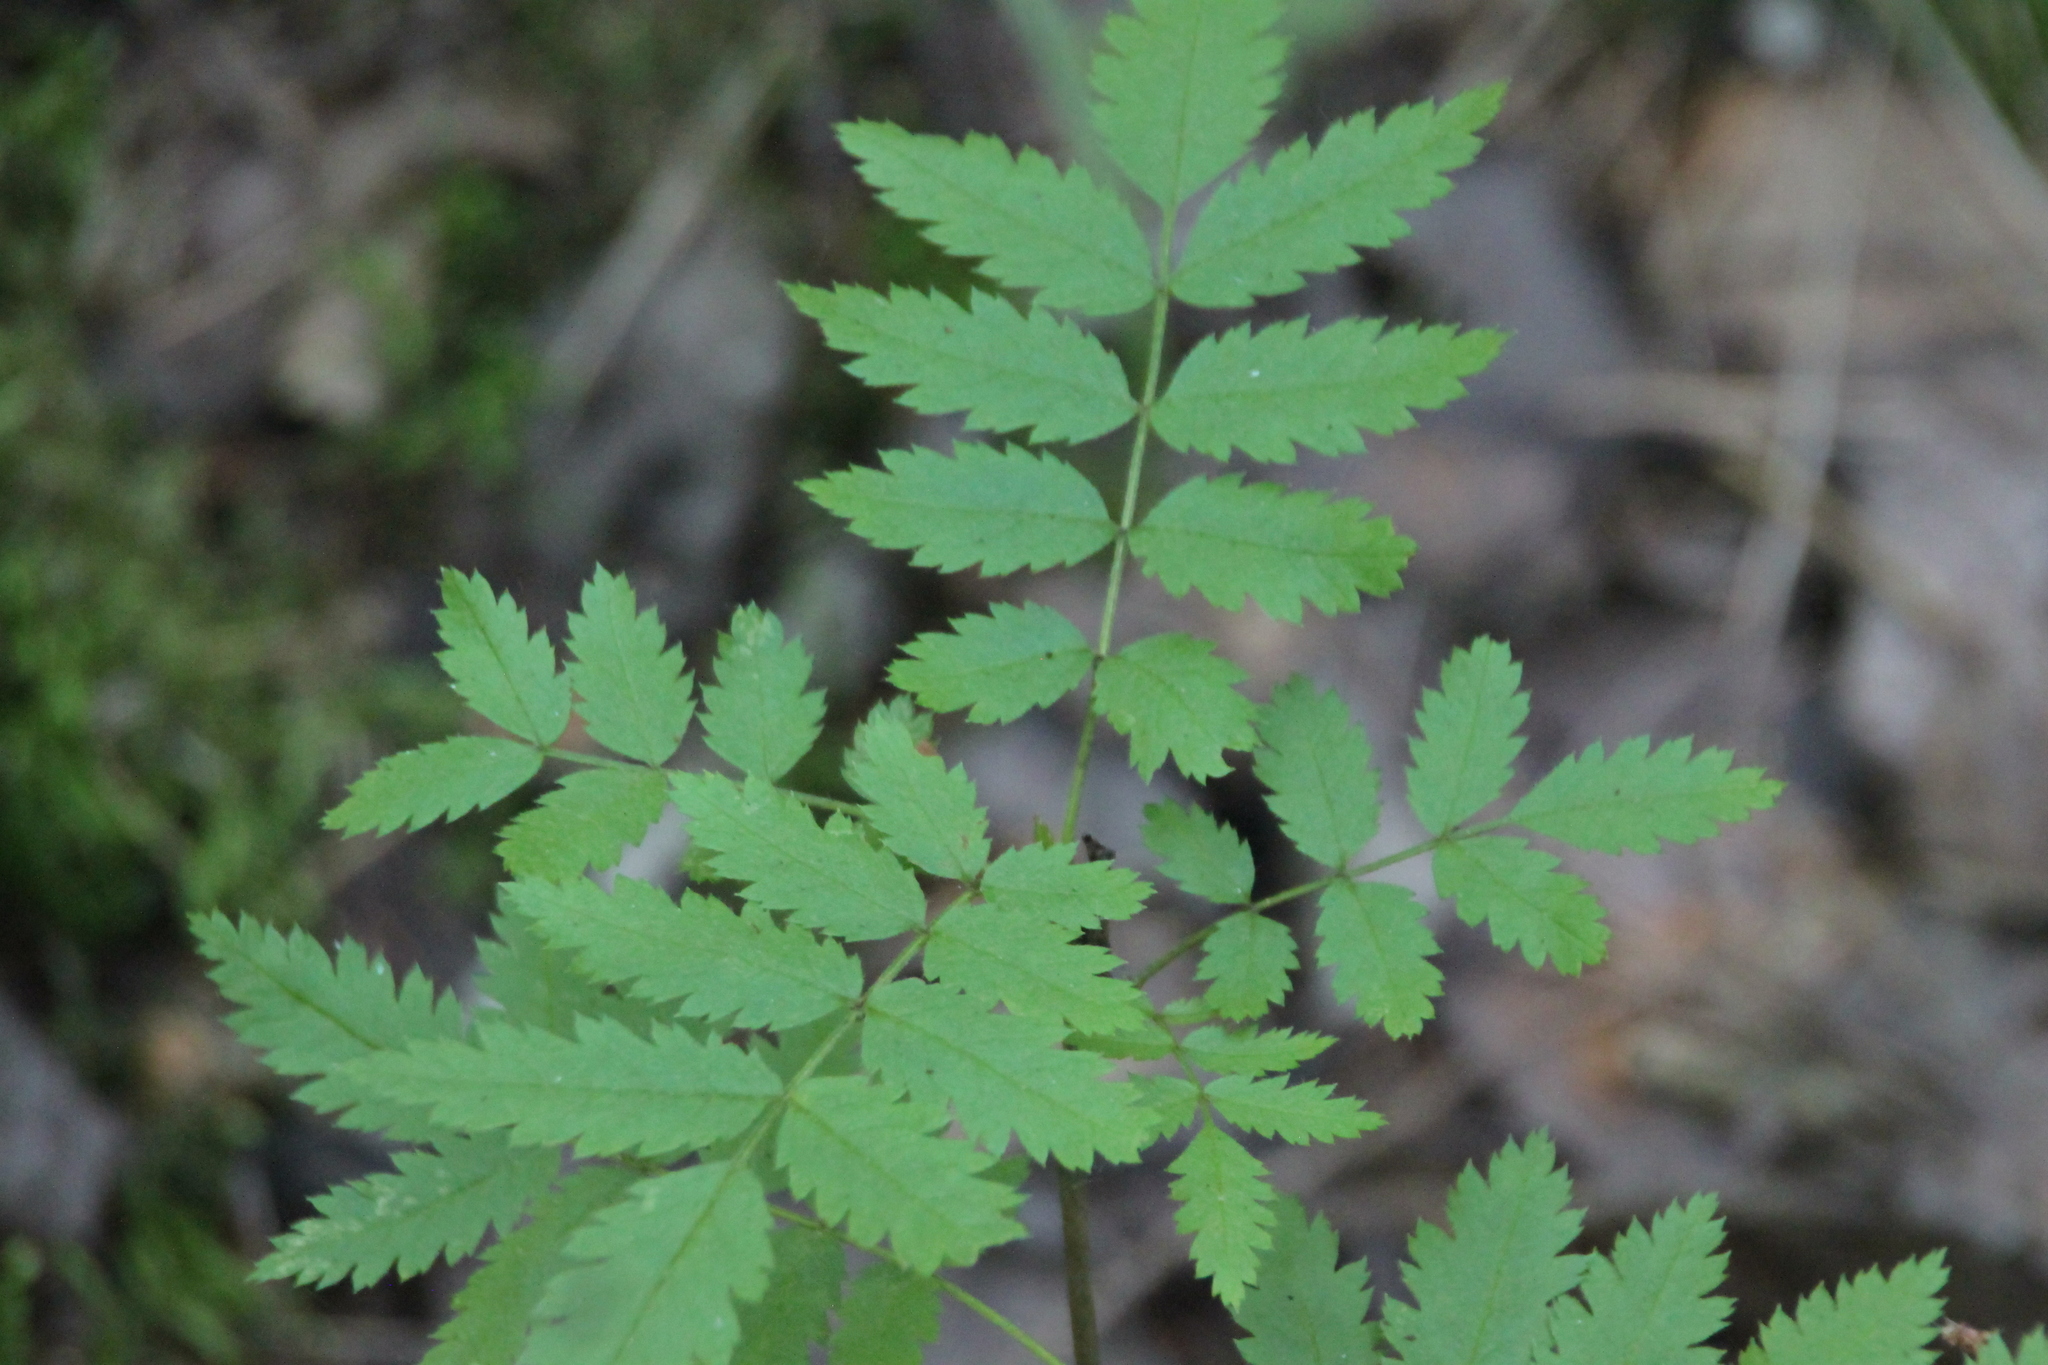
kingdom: Plantae
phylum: Tracheophyta
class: Magnoliopsida
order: Rosales
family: Rosaceae
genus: Sorbus
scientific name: Sorbus aucuparia
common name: Rowan
